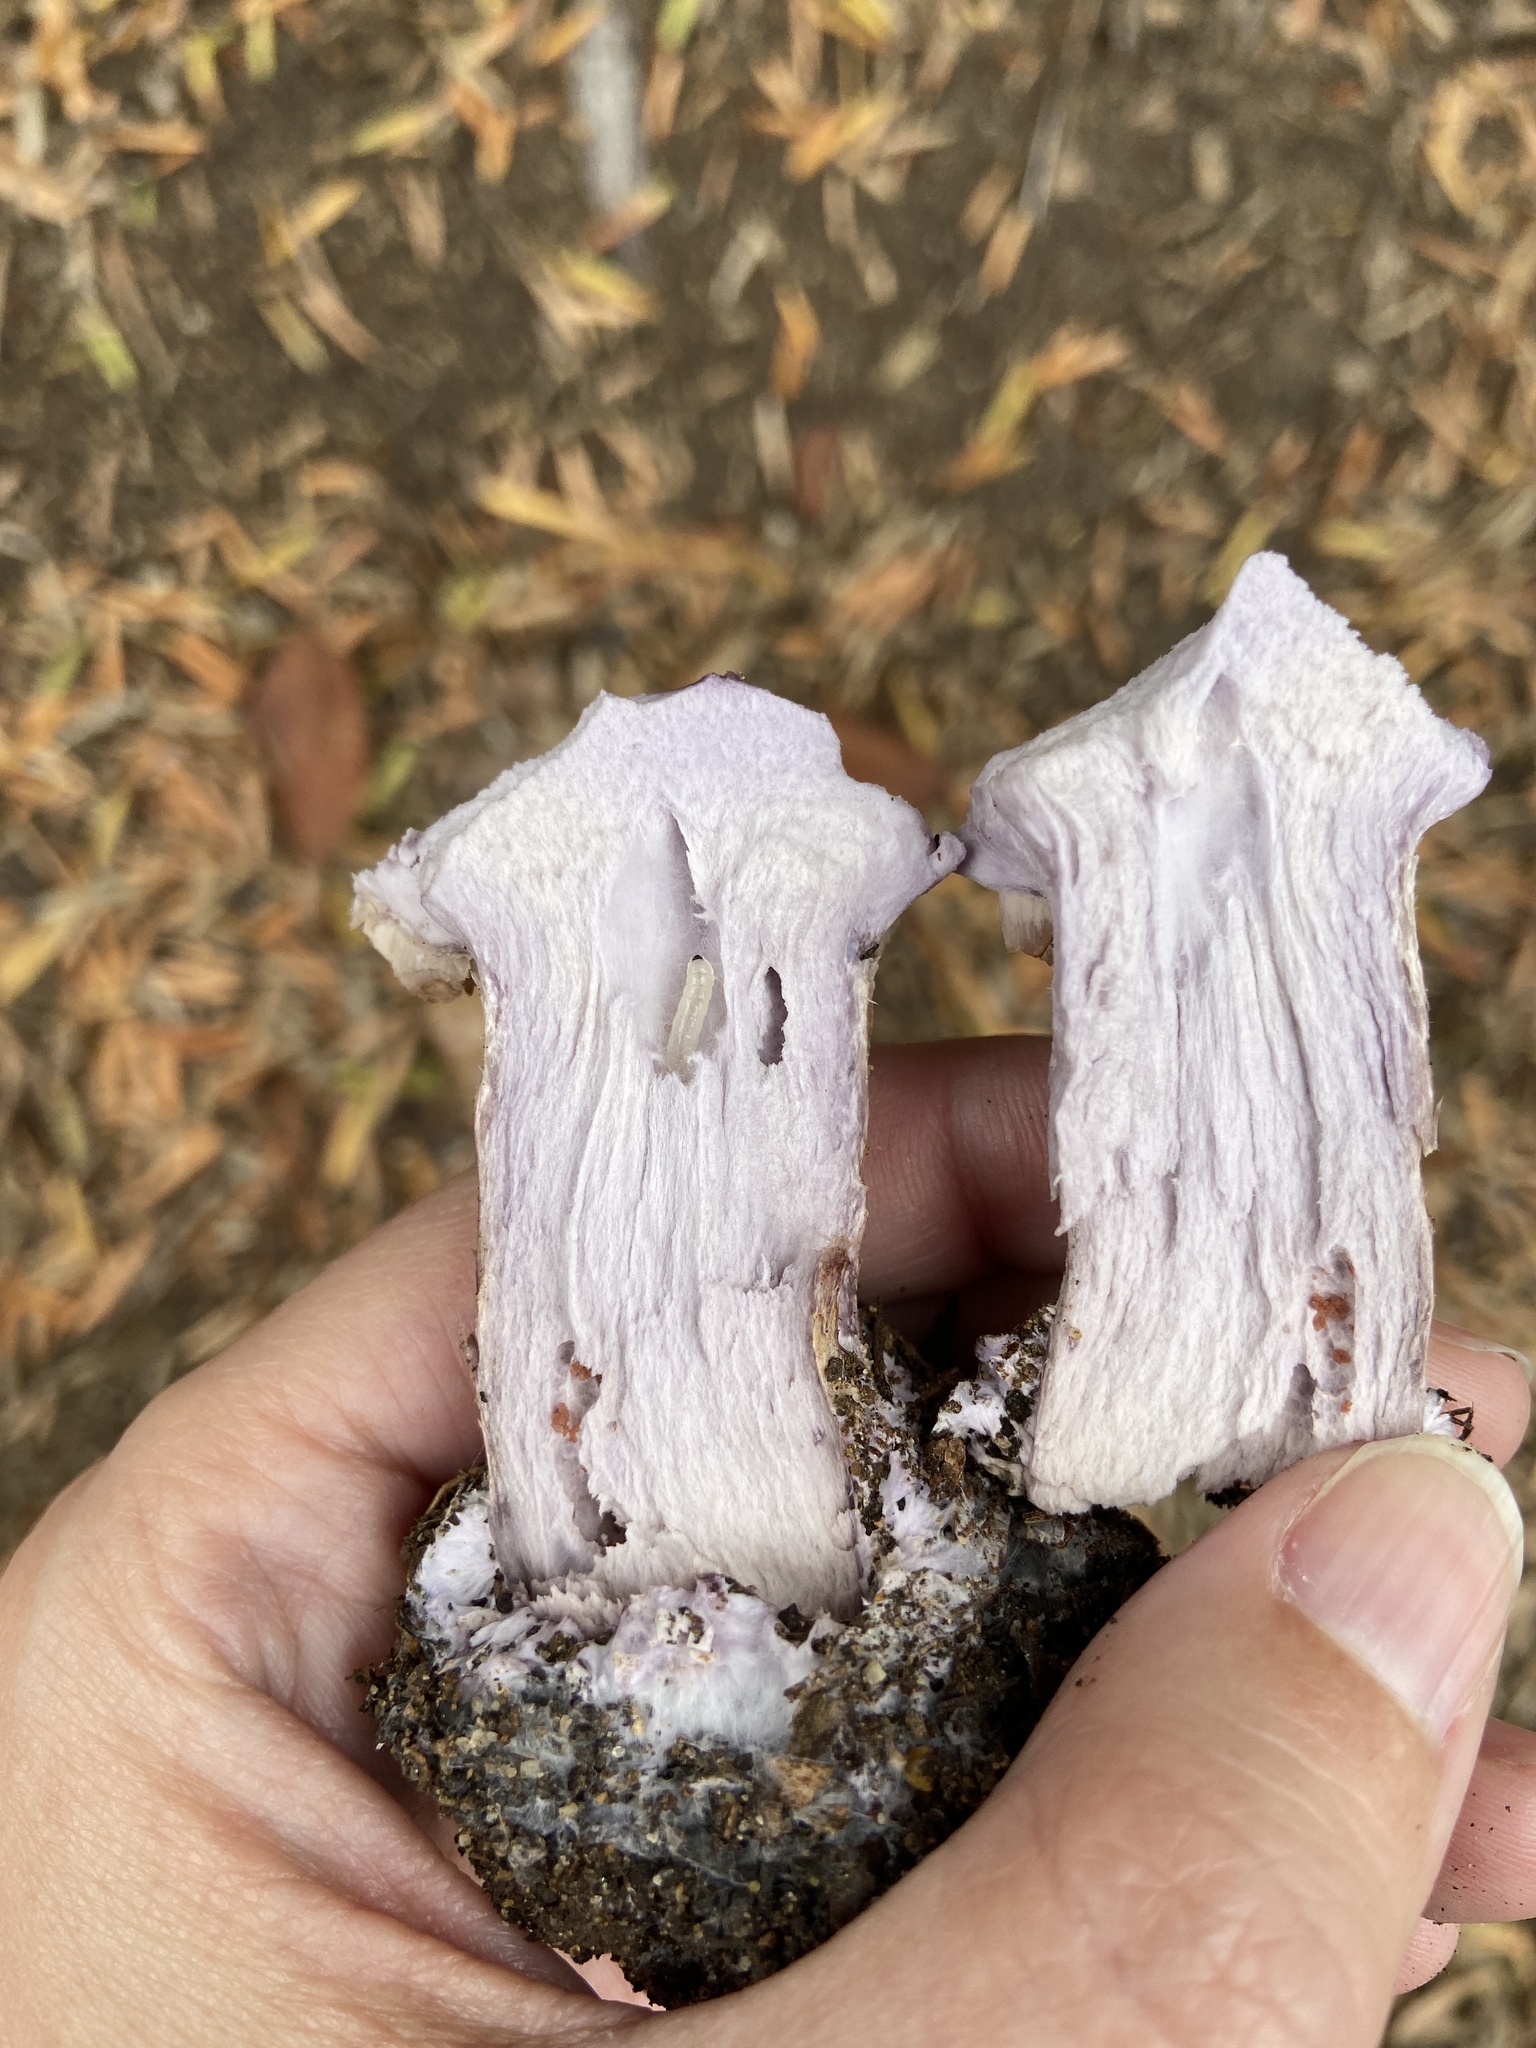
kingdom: Fungi
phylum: Basidiomycota
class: Agaricomycetes
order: Agaricales
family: Tricholomataceae
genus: Collybia
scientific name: Collybia
